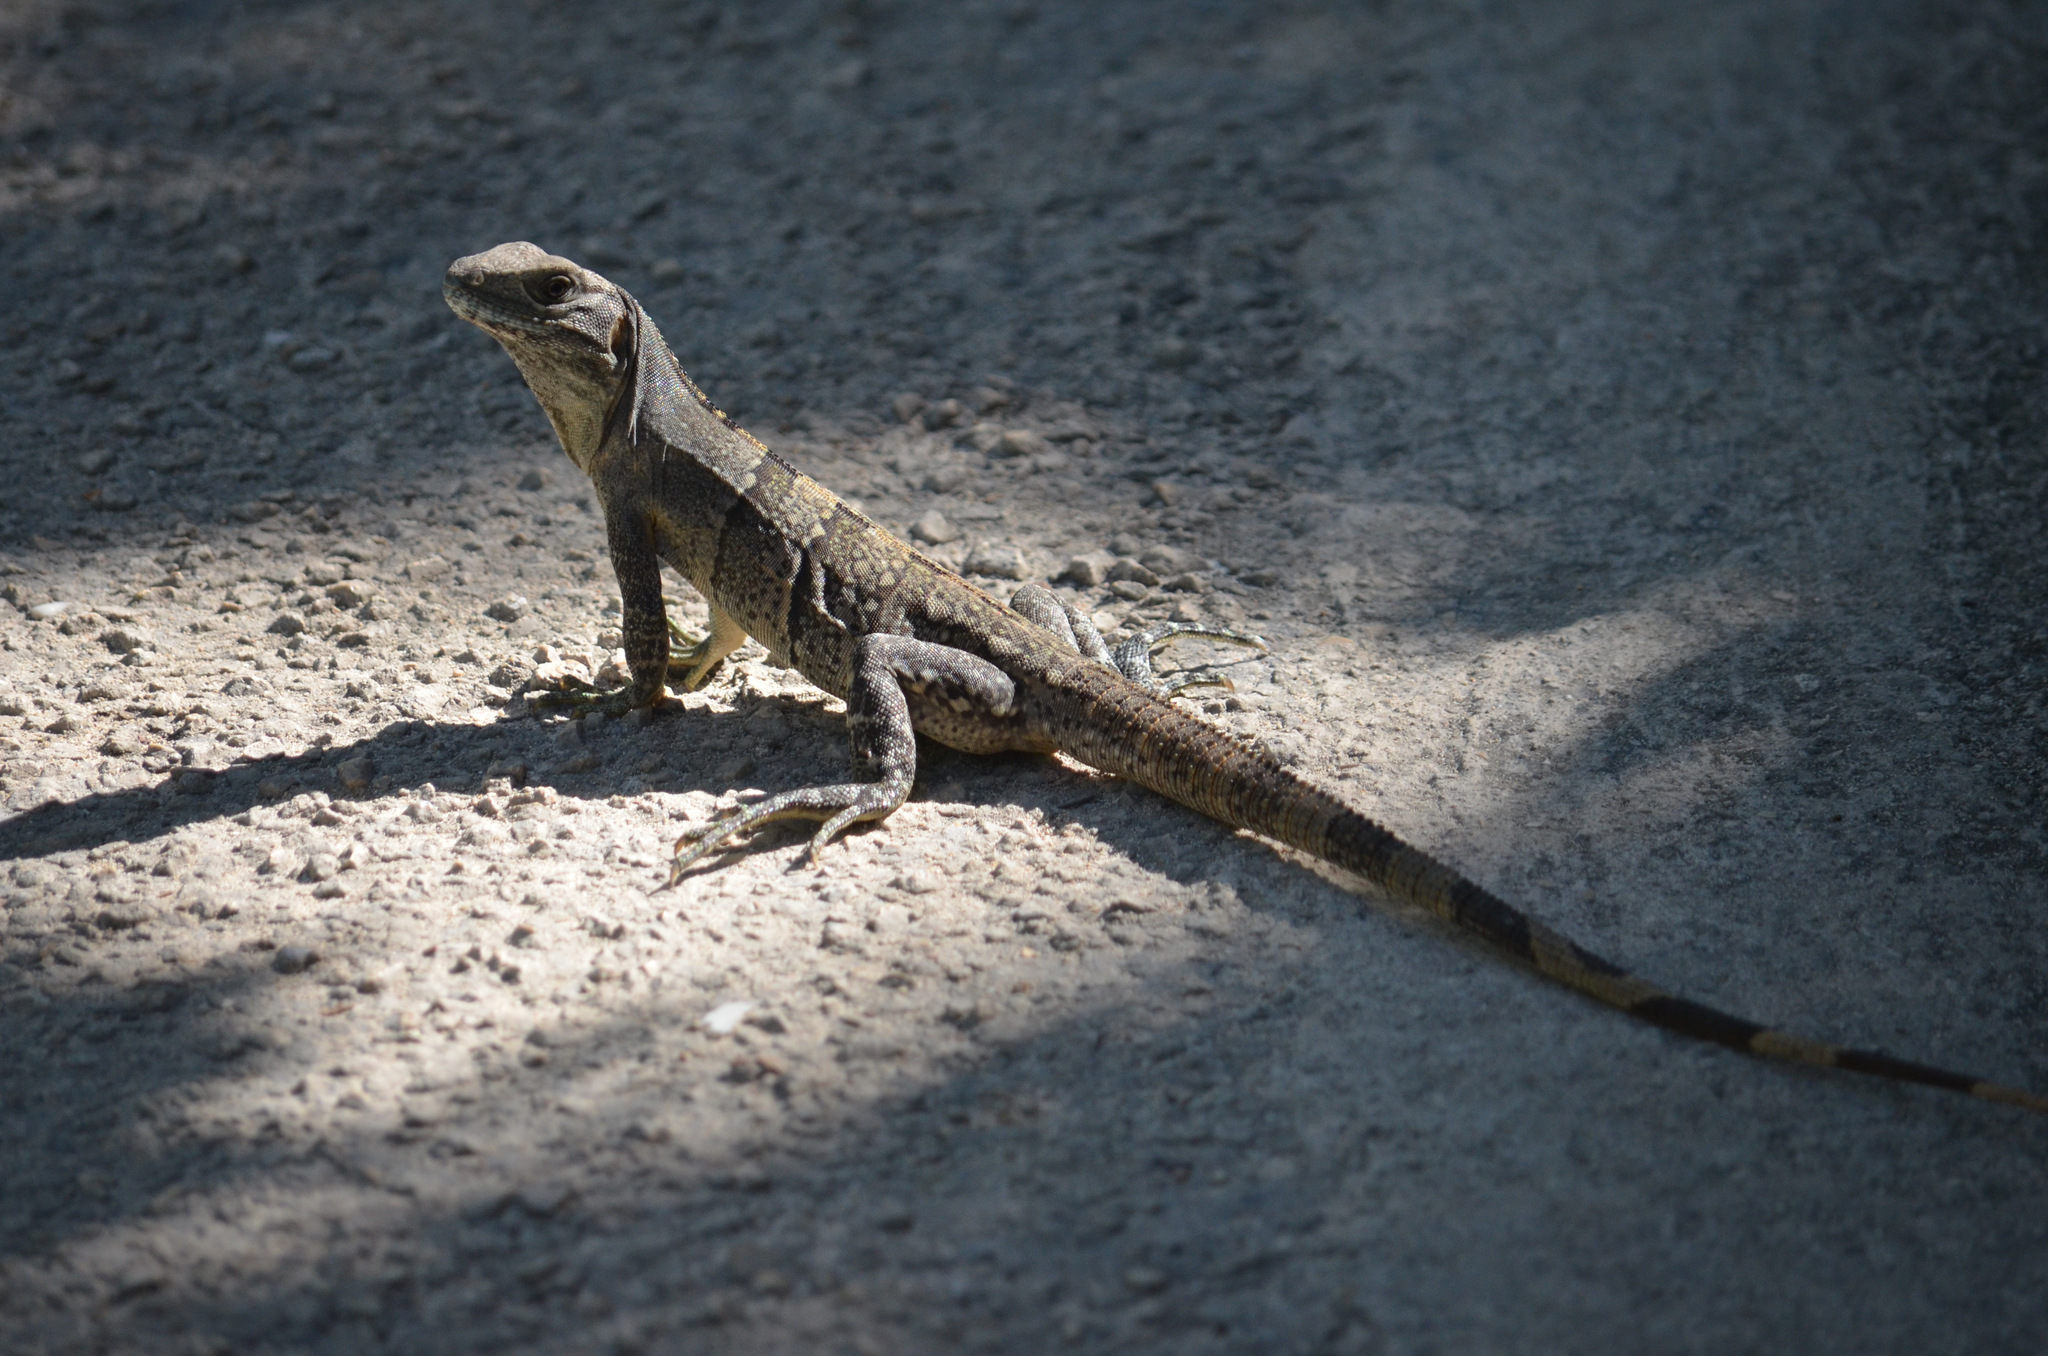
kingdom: Animalia
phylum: Chordata
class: Squamata
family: Iguanidae
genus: Ctenosaura
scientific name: Ctenosaura similis
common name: Black spiny-tailed iguana
